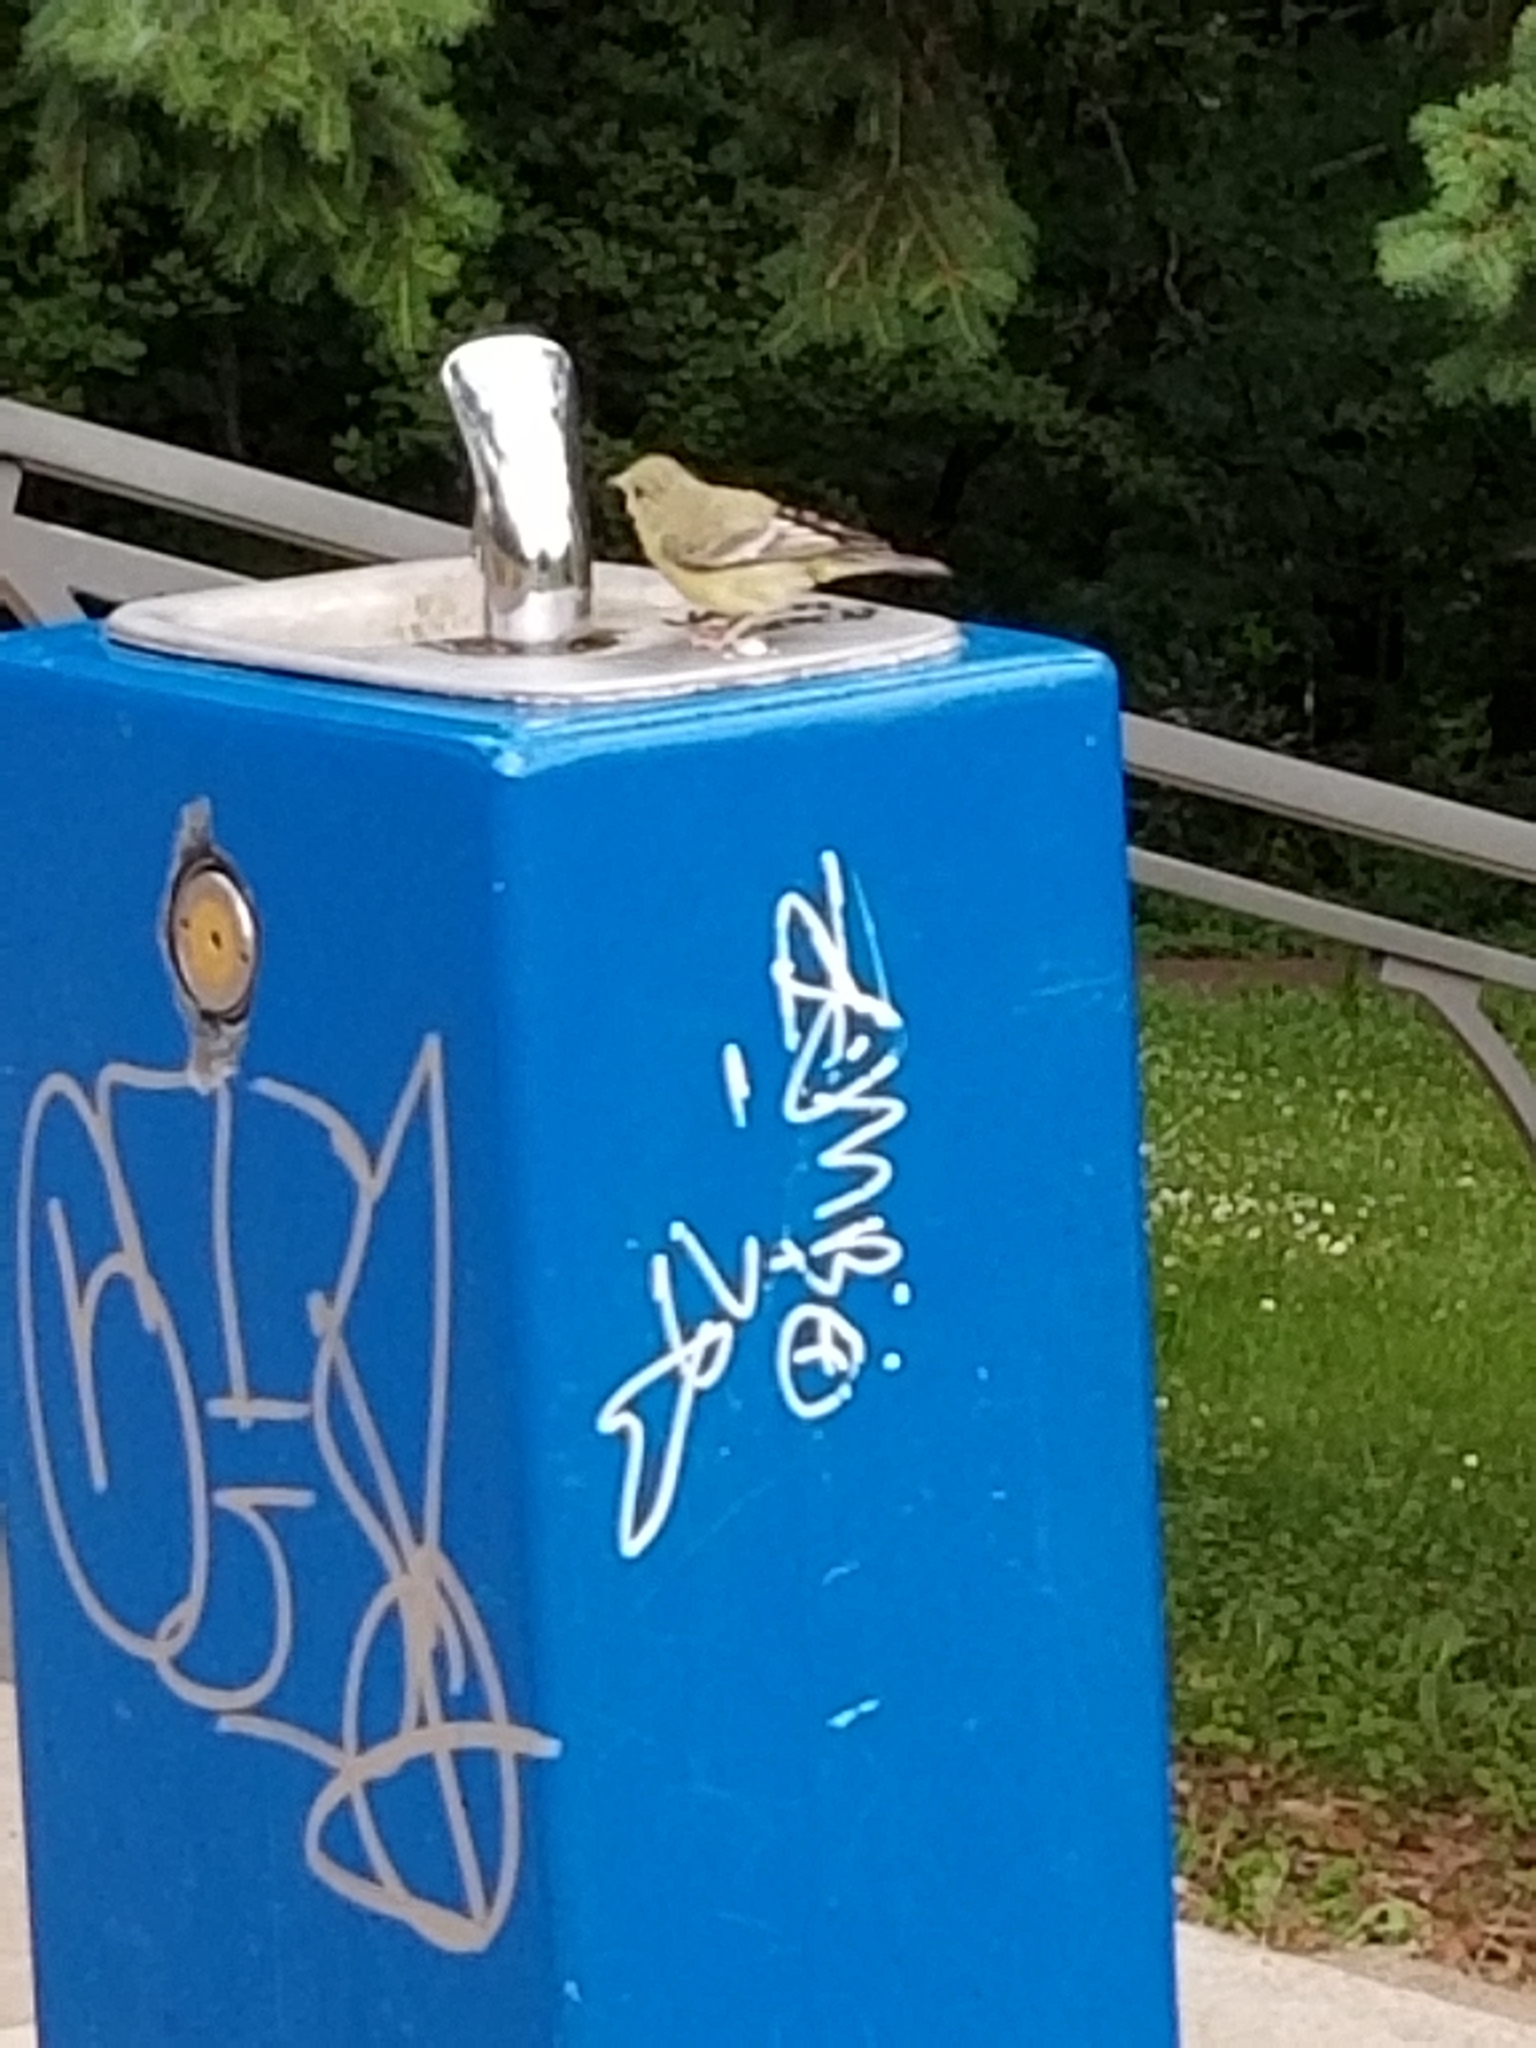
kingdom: Animalia
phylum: Chordata
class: Aves
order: Passeriformes
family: Fringillidae
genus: Spinus
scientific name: Spinus psaltria
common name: Lesser goldfinch
